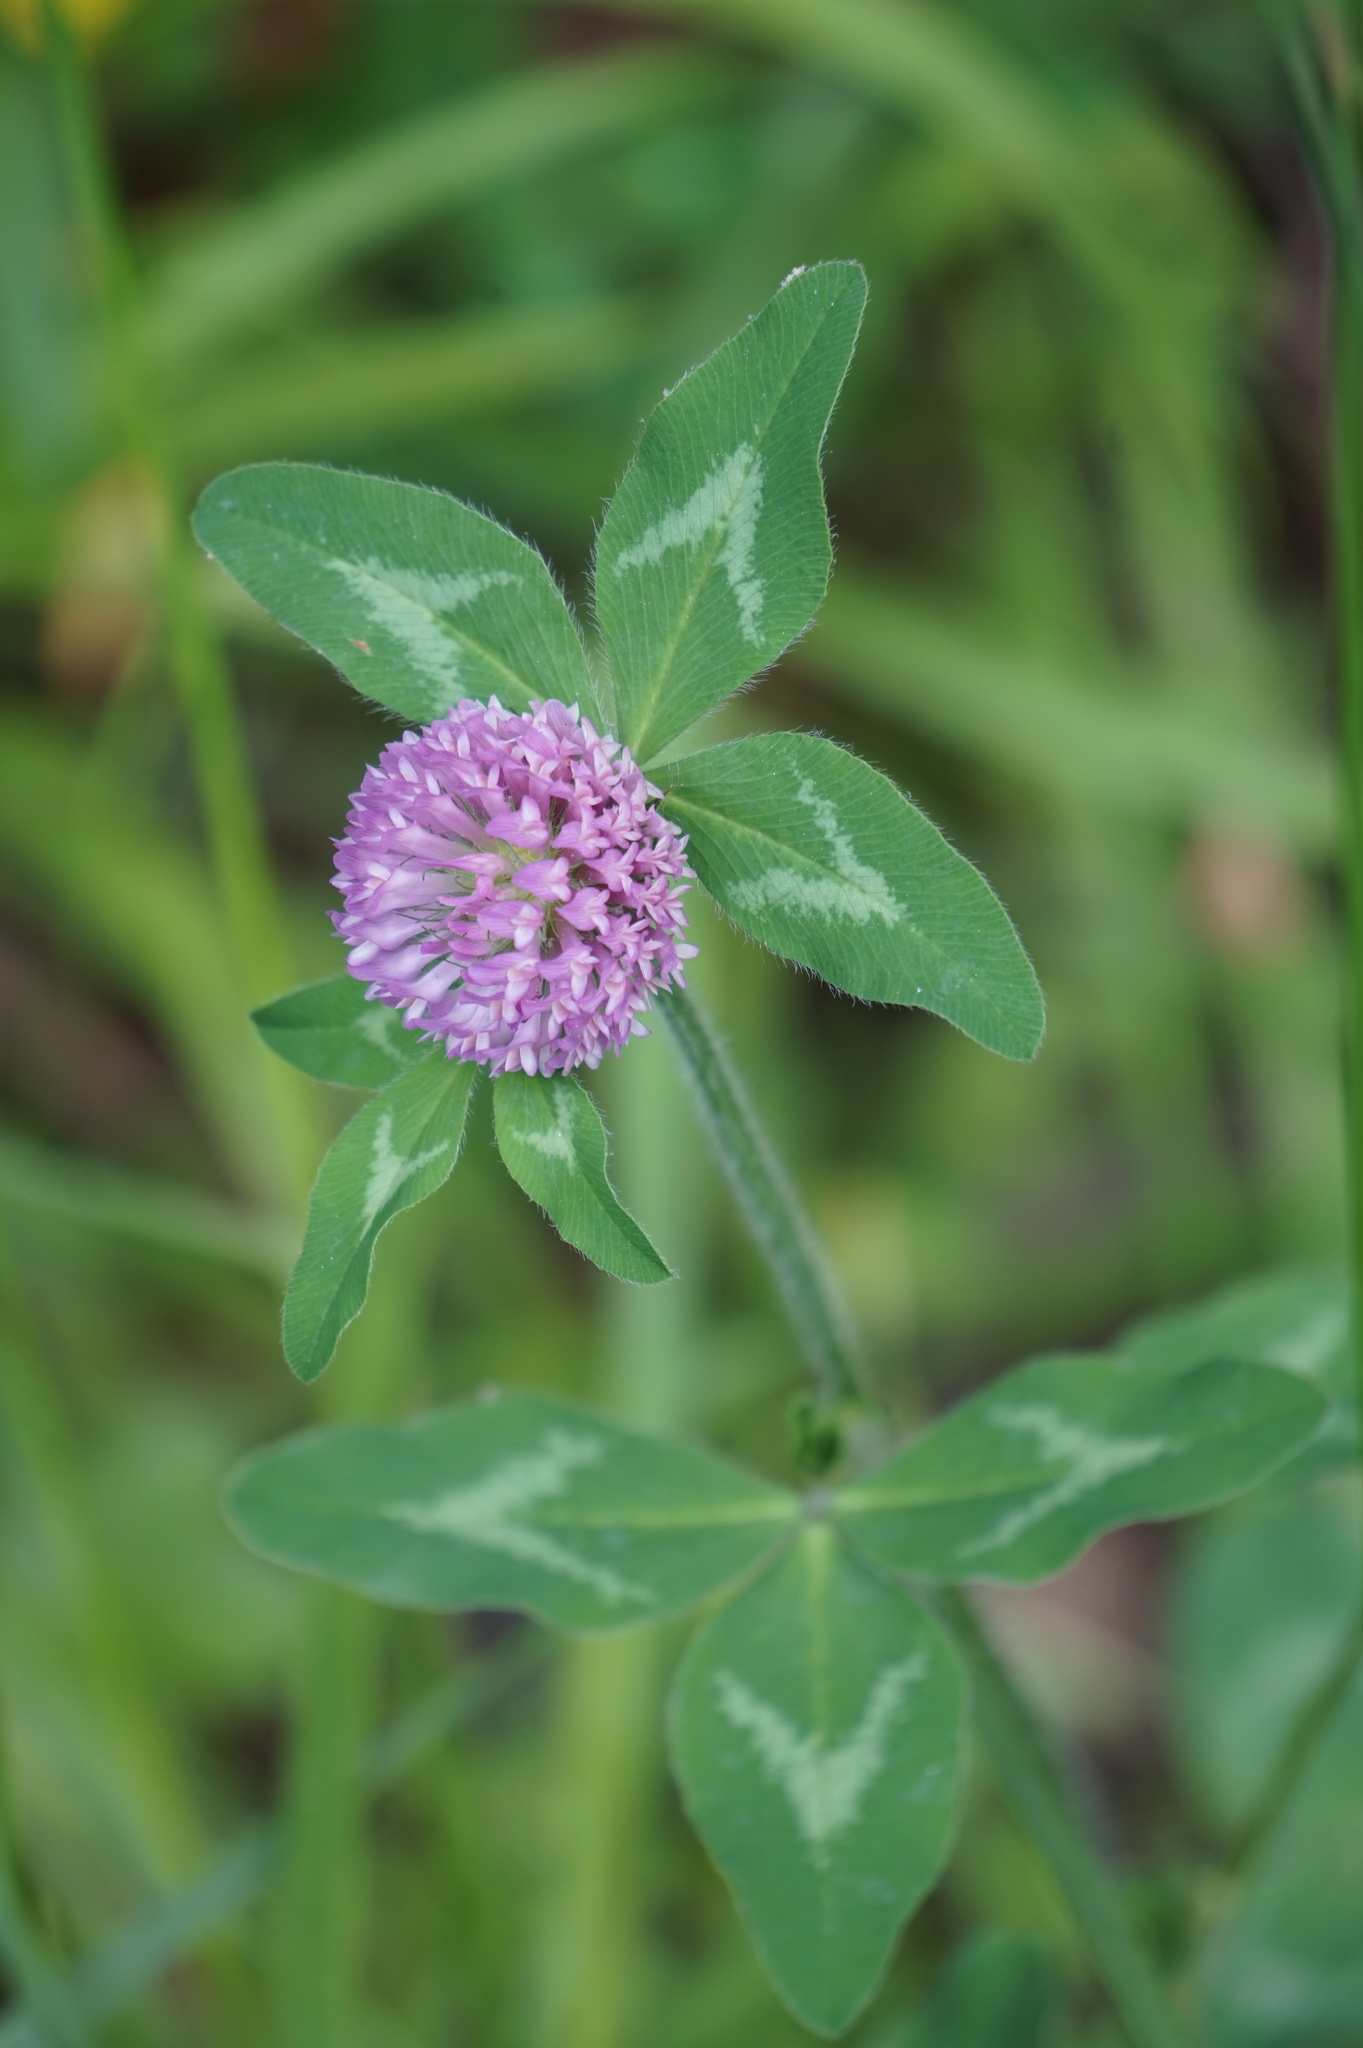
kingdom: Plantae
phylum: Tracheophyta
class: Magnoliopsida
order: Fabales
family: Fabaceae
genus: Trifolium
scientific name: Trifolium pratense
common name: Red clover
